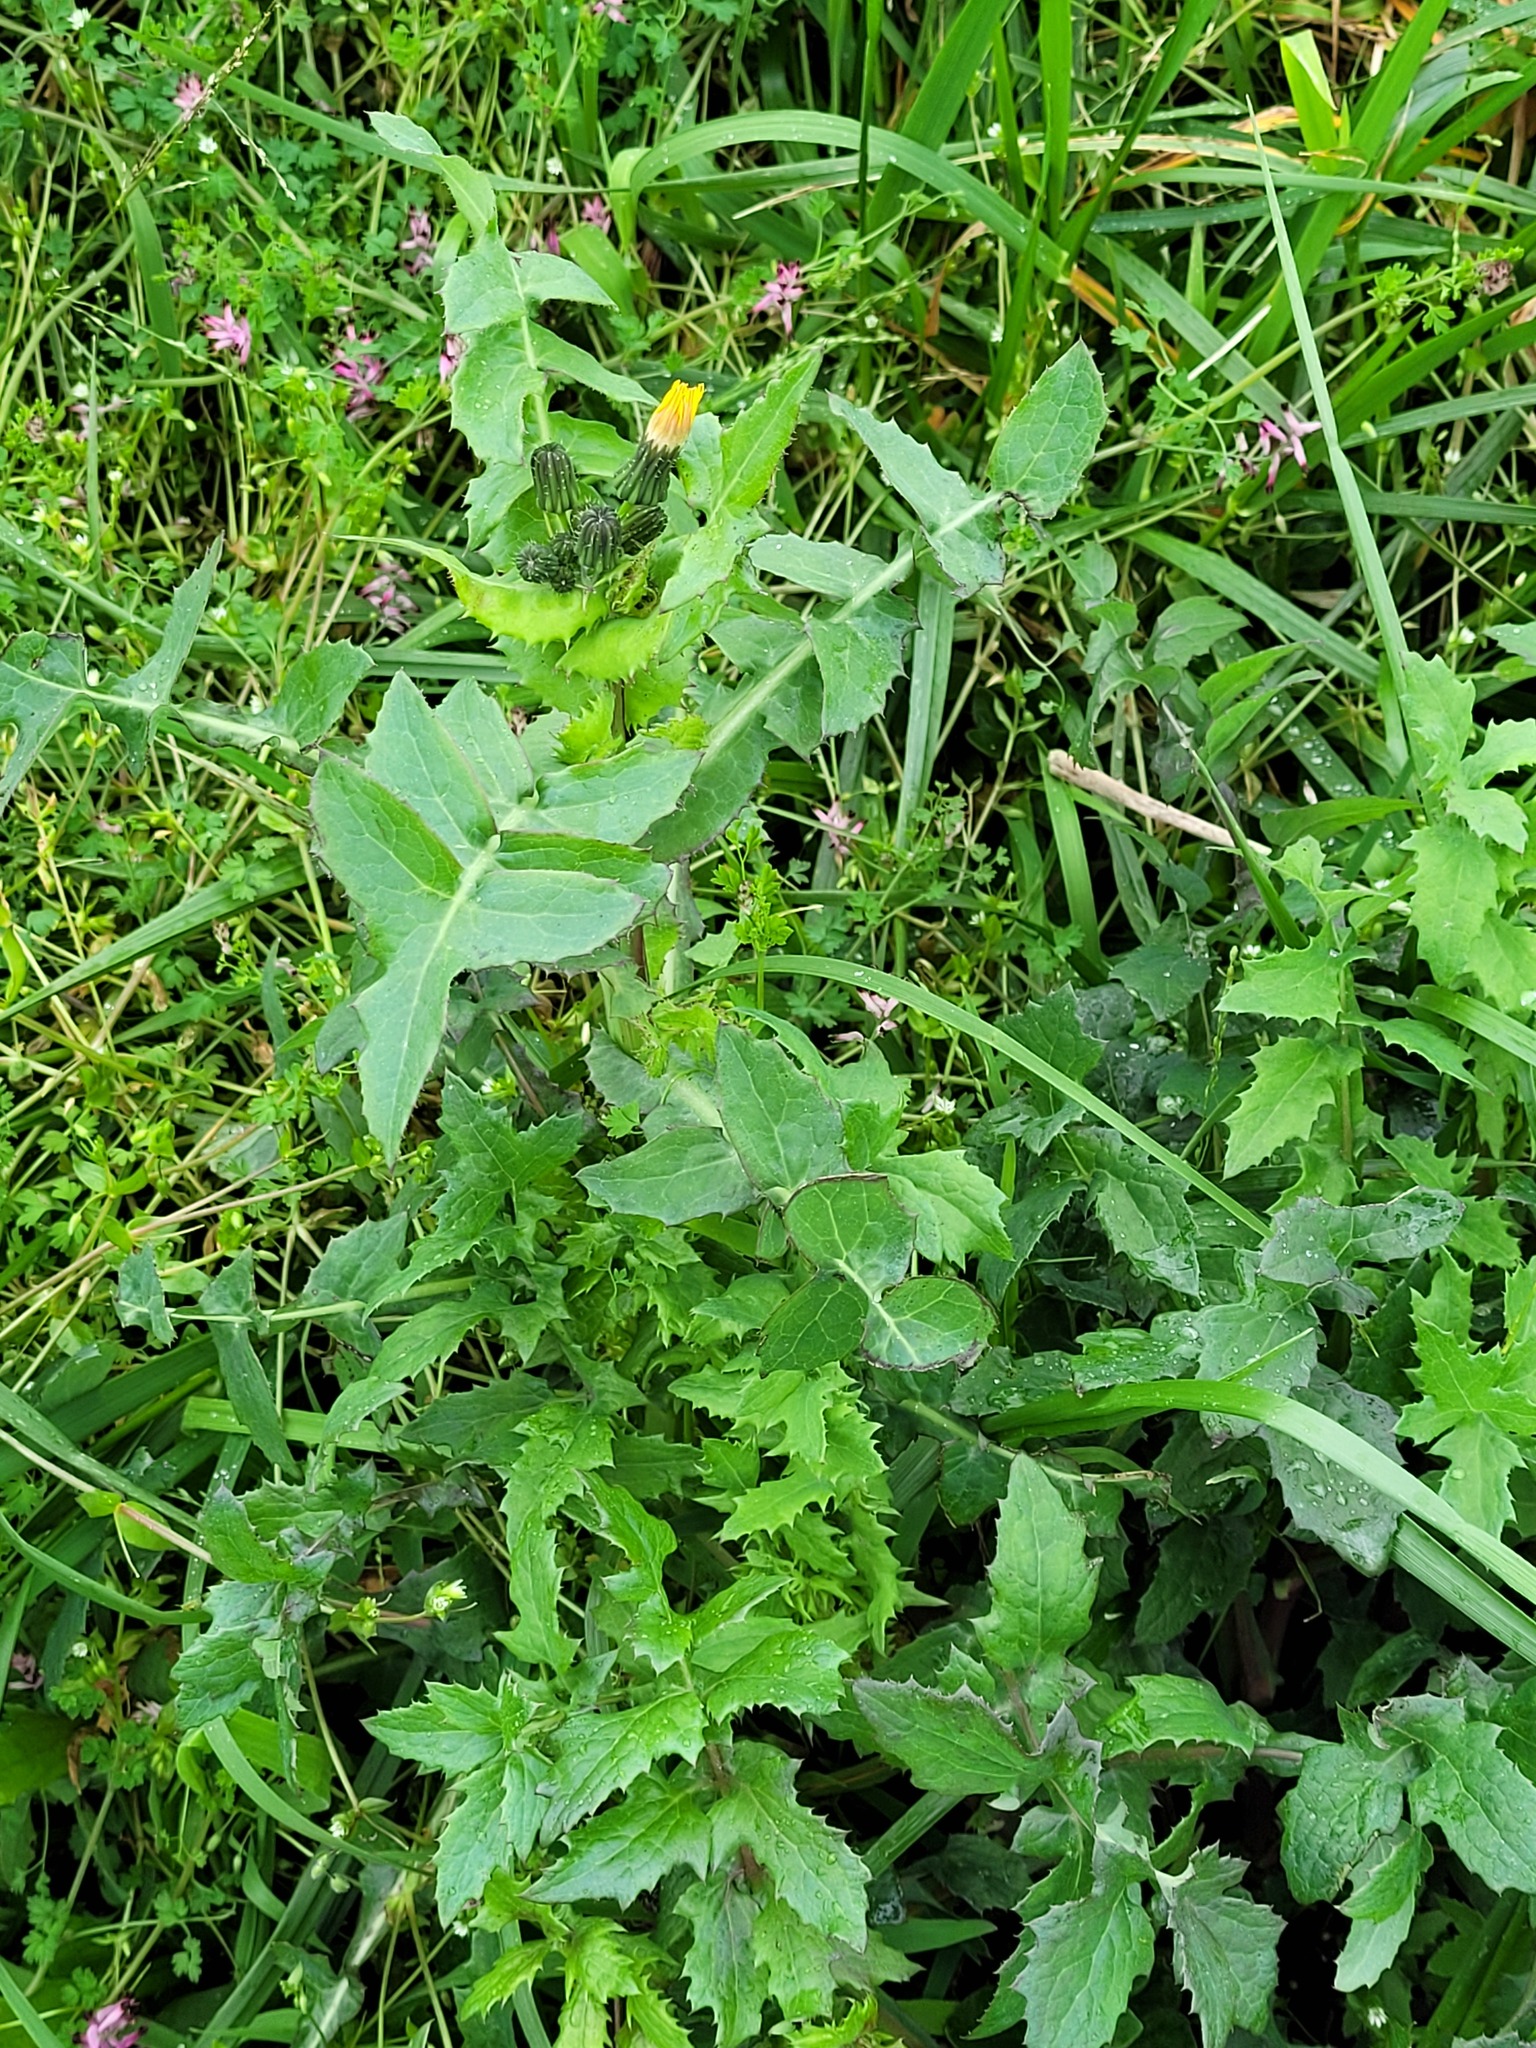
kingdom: Plantae
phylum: Tracheophyta
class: Magnoliopsida
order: Asterales
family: Asteraceae
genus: Sonchus
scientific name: Sonchus oleraceus
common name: Common sowthistle
